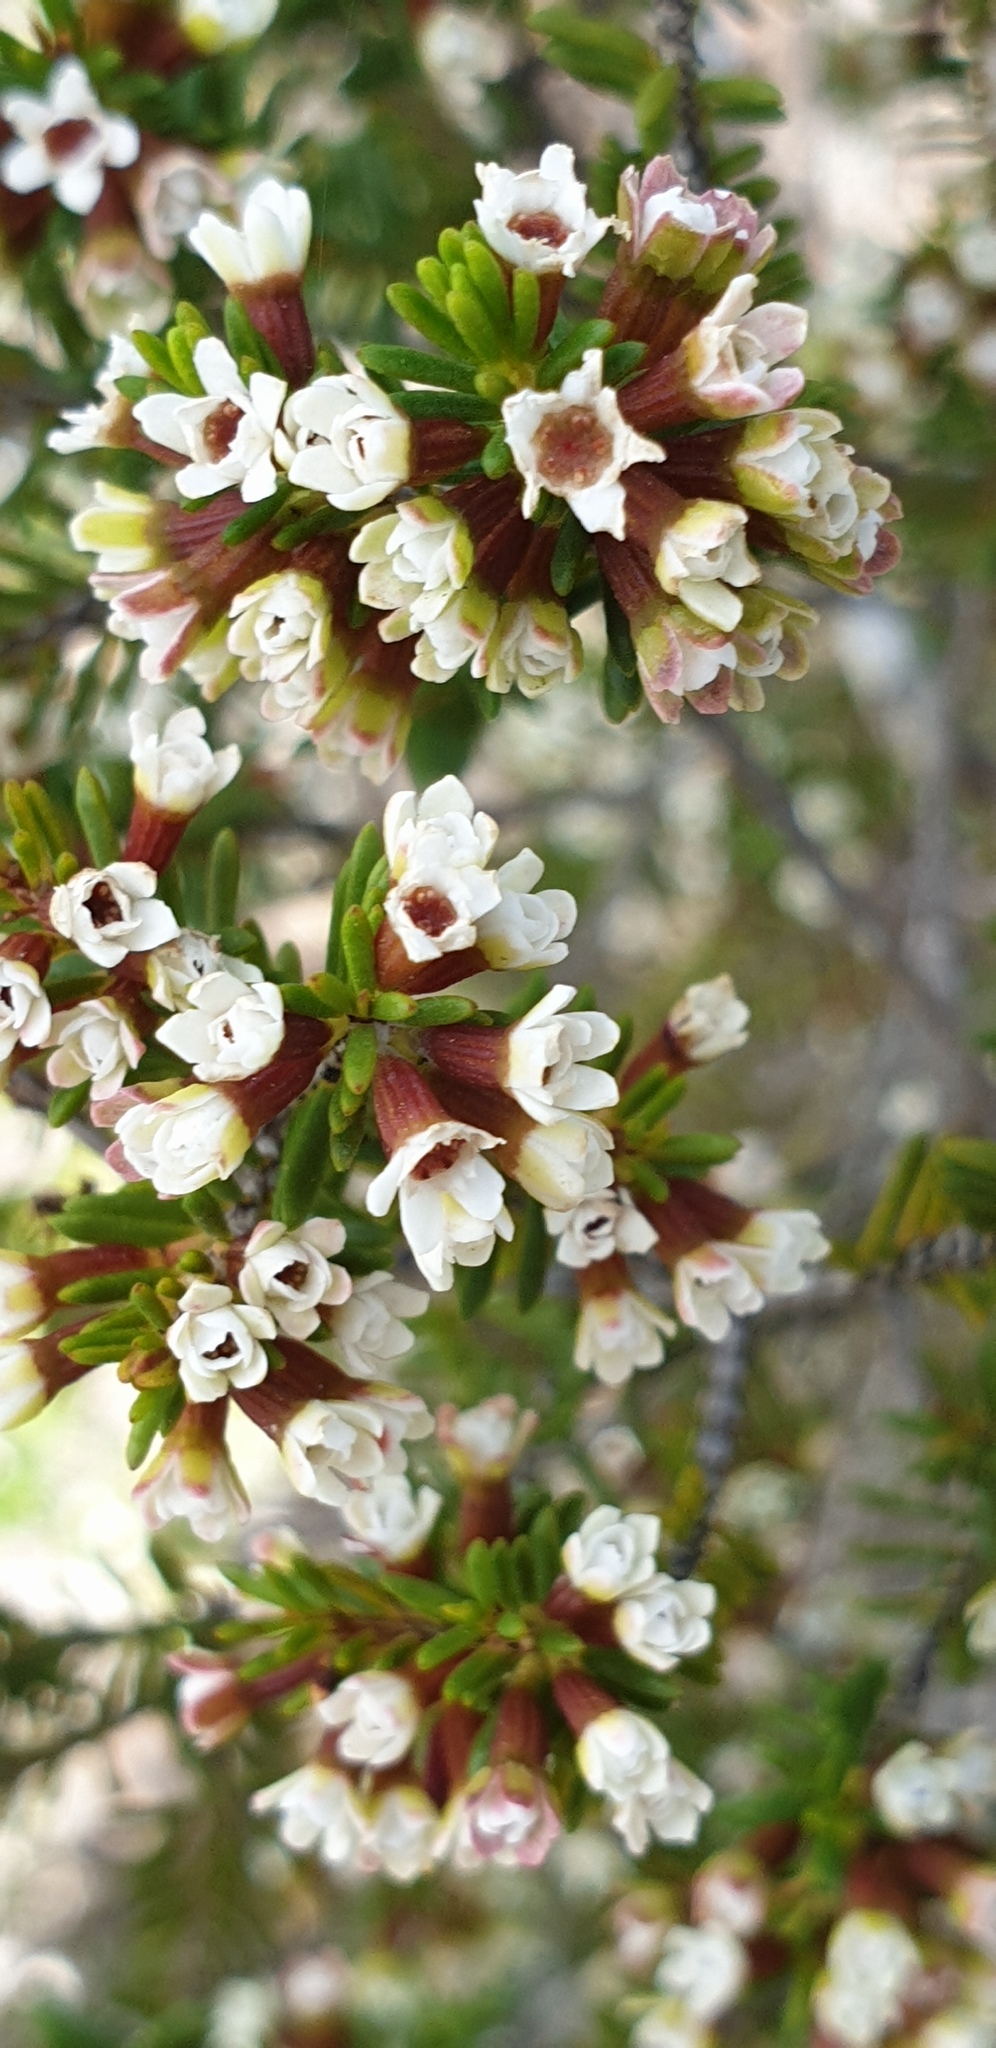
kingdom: Plantae
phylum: Tracheophyta
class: Magnoliopsida
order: Myrtales
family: Myrtaceae
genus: Thryptomene
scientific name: Thryptomene ericaea
